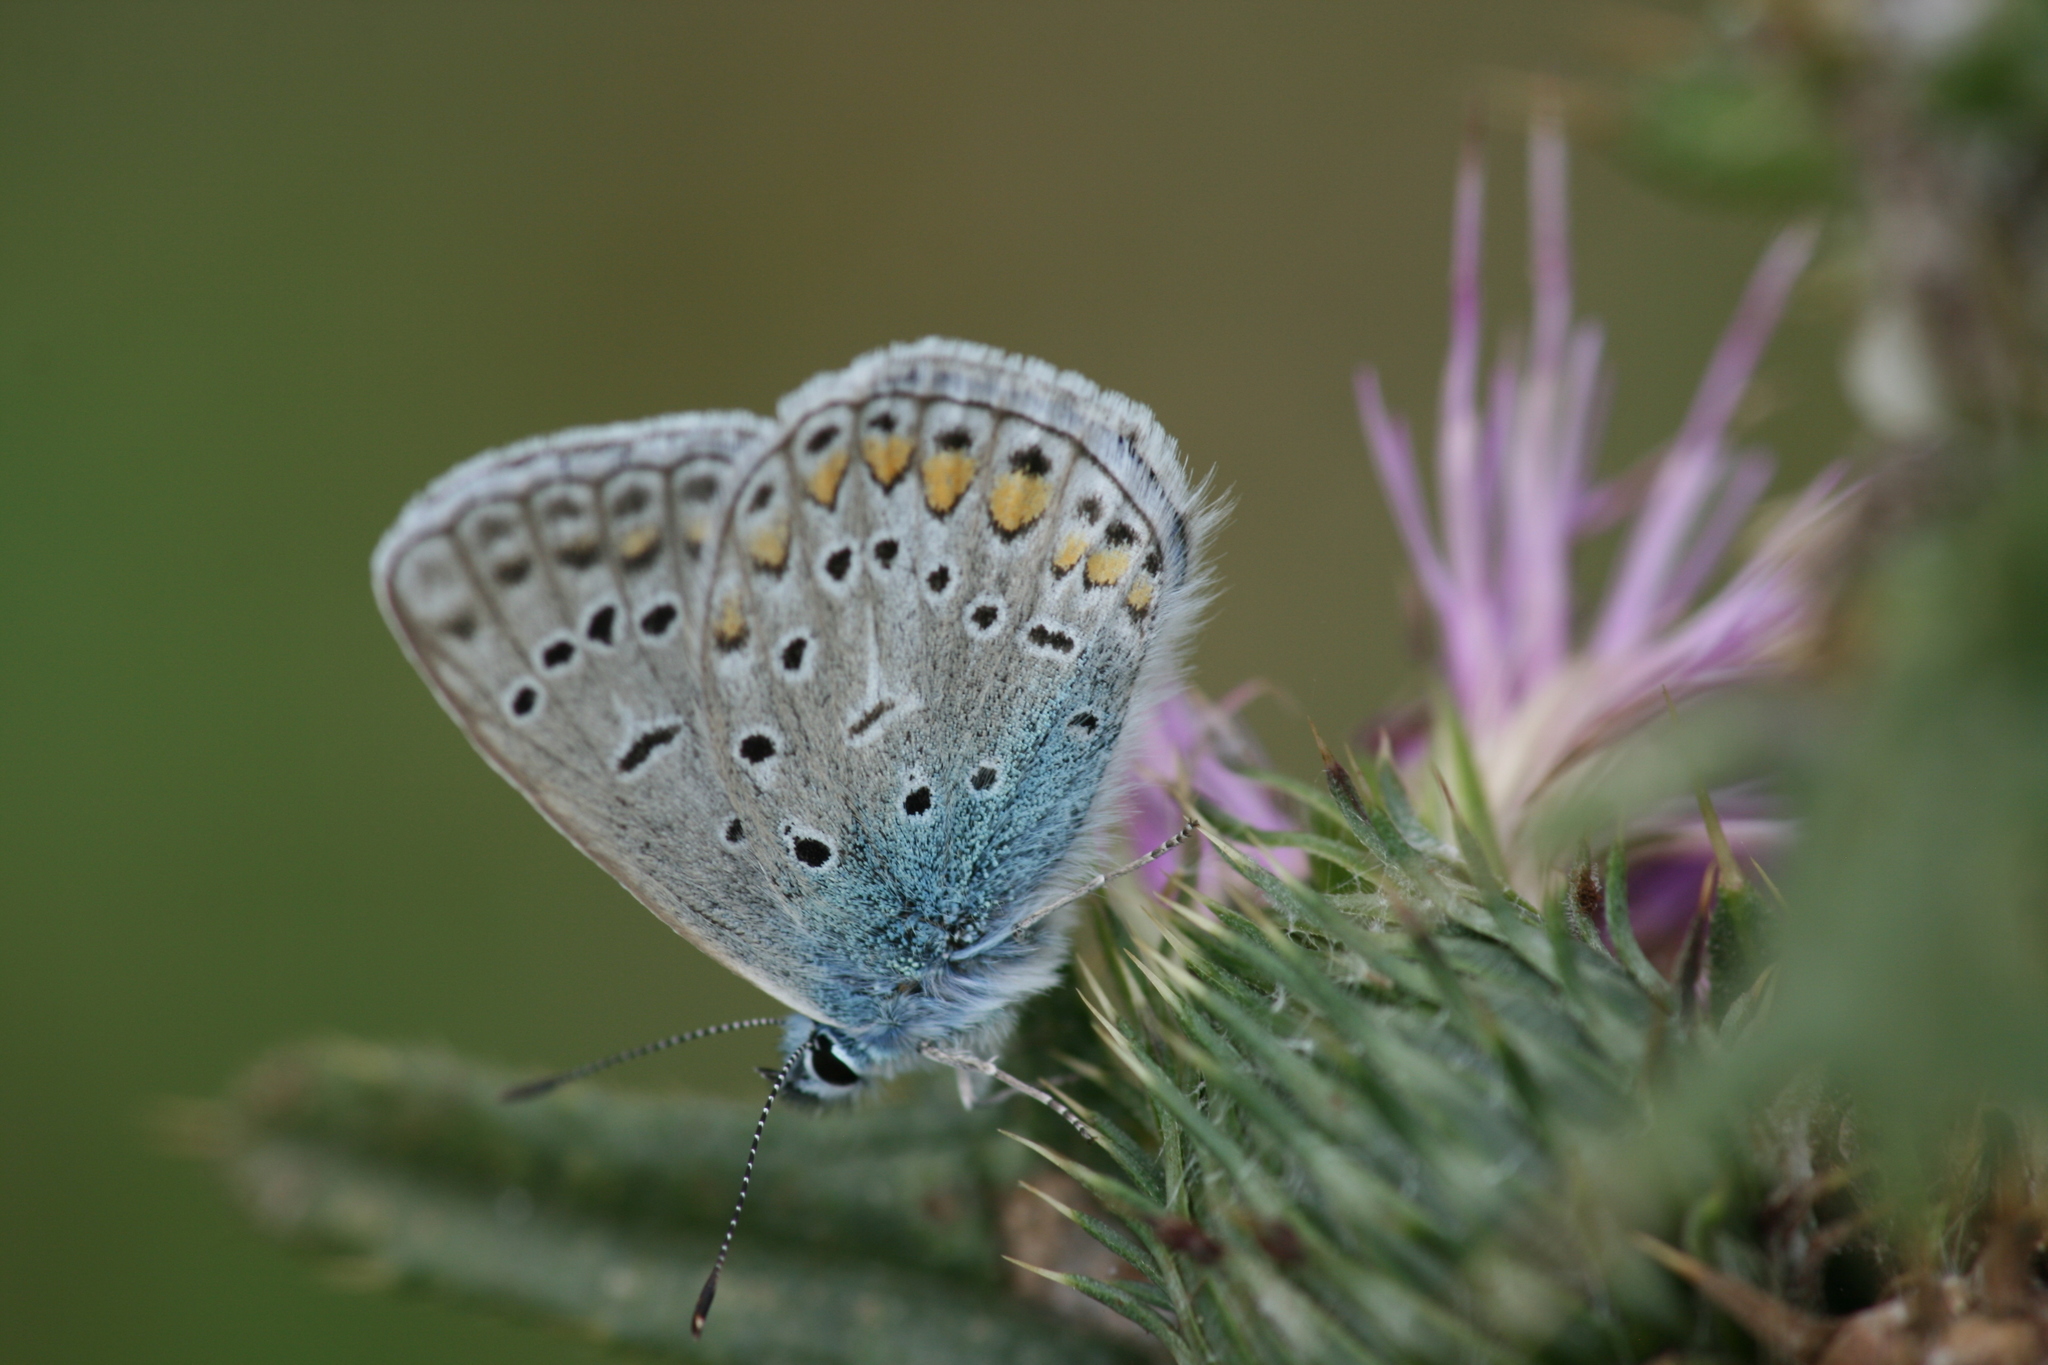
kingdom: Animalia
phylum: Arthropoda
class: Insecta
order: Lepidoptera
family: Lycaenidae
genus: Polyommatus
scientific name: Polyommatus icarus
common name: Common blue
